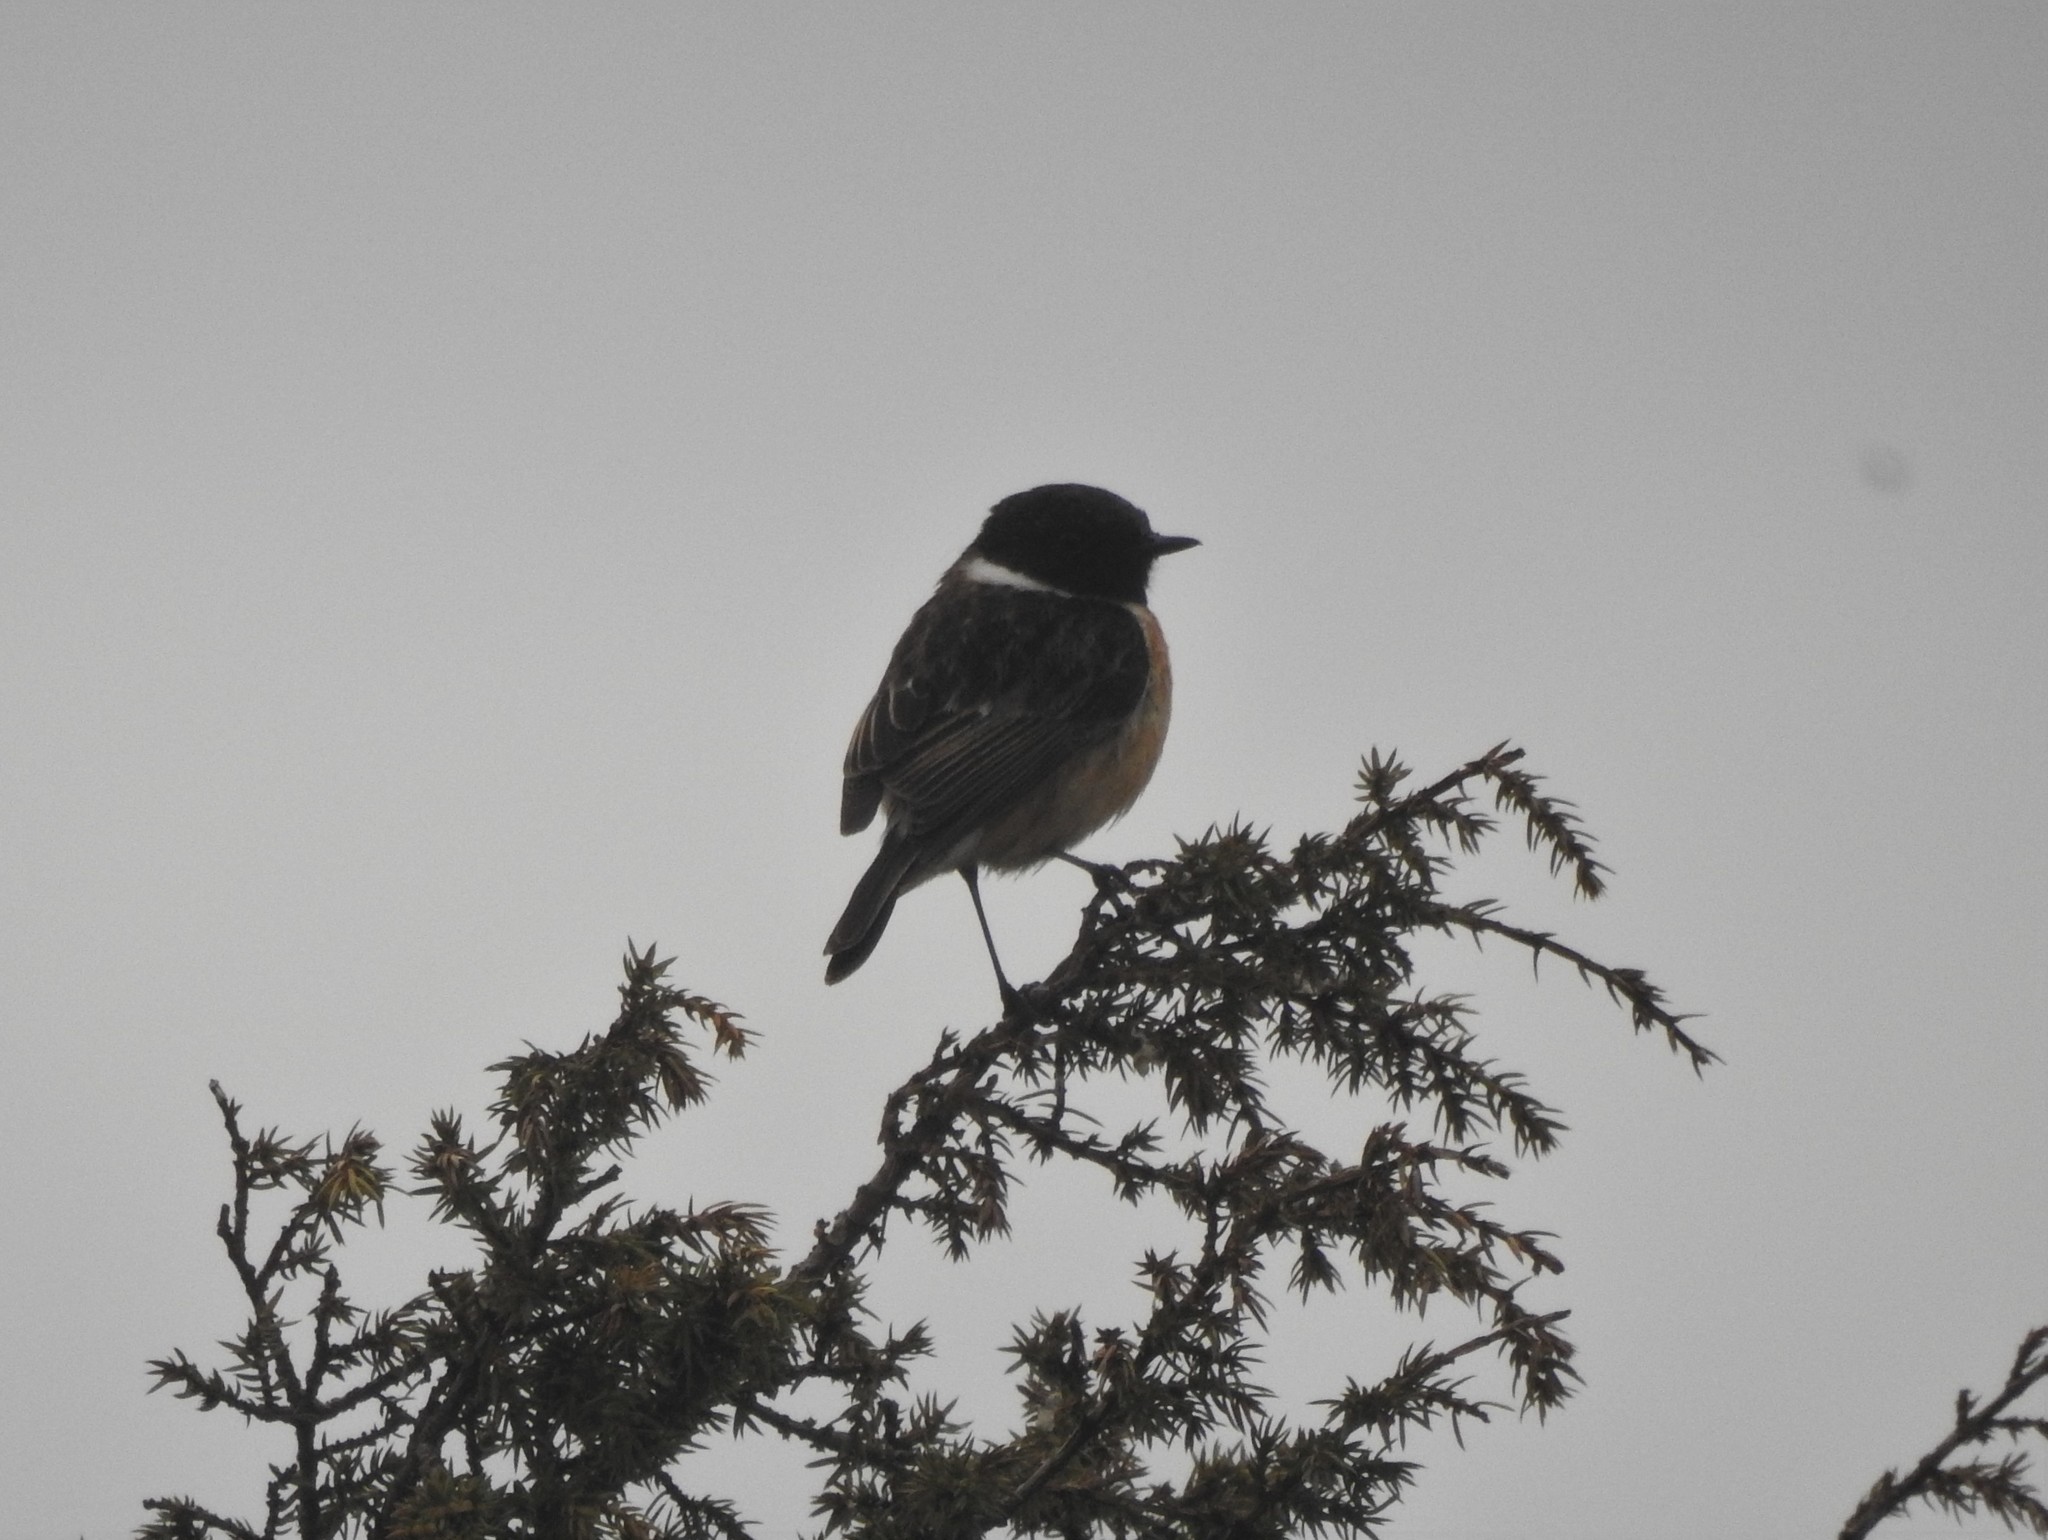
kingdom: Animalia
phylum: Chordata
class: Aves
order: Passeriformes
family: Muscicapidae
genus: Saxicola
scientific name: Saxicola rubicola
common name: European stonechat
